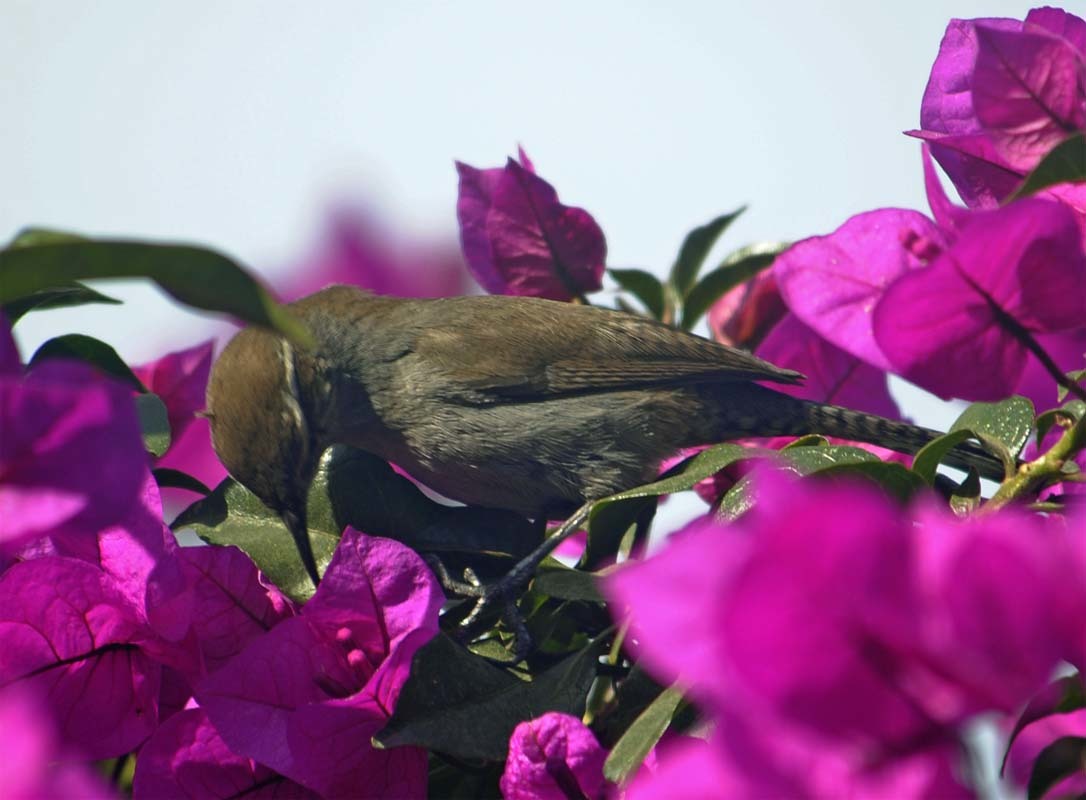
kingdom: Animalia
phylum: Chordata
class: Aves
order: Passeriformes
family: Troglodytidae
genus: Thryomanes
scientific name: Thryomanes bewickii
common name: Bewick's wren
